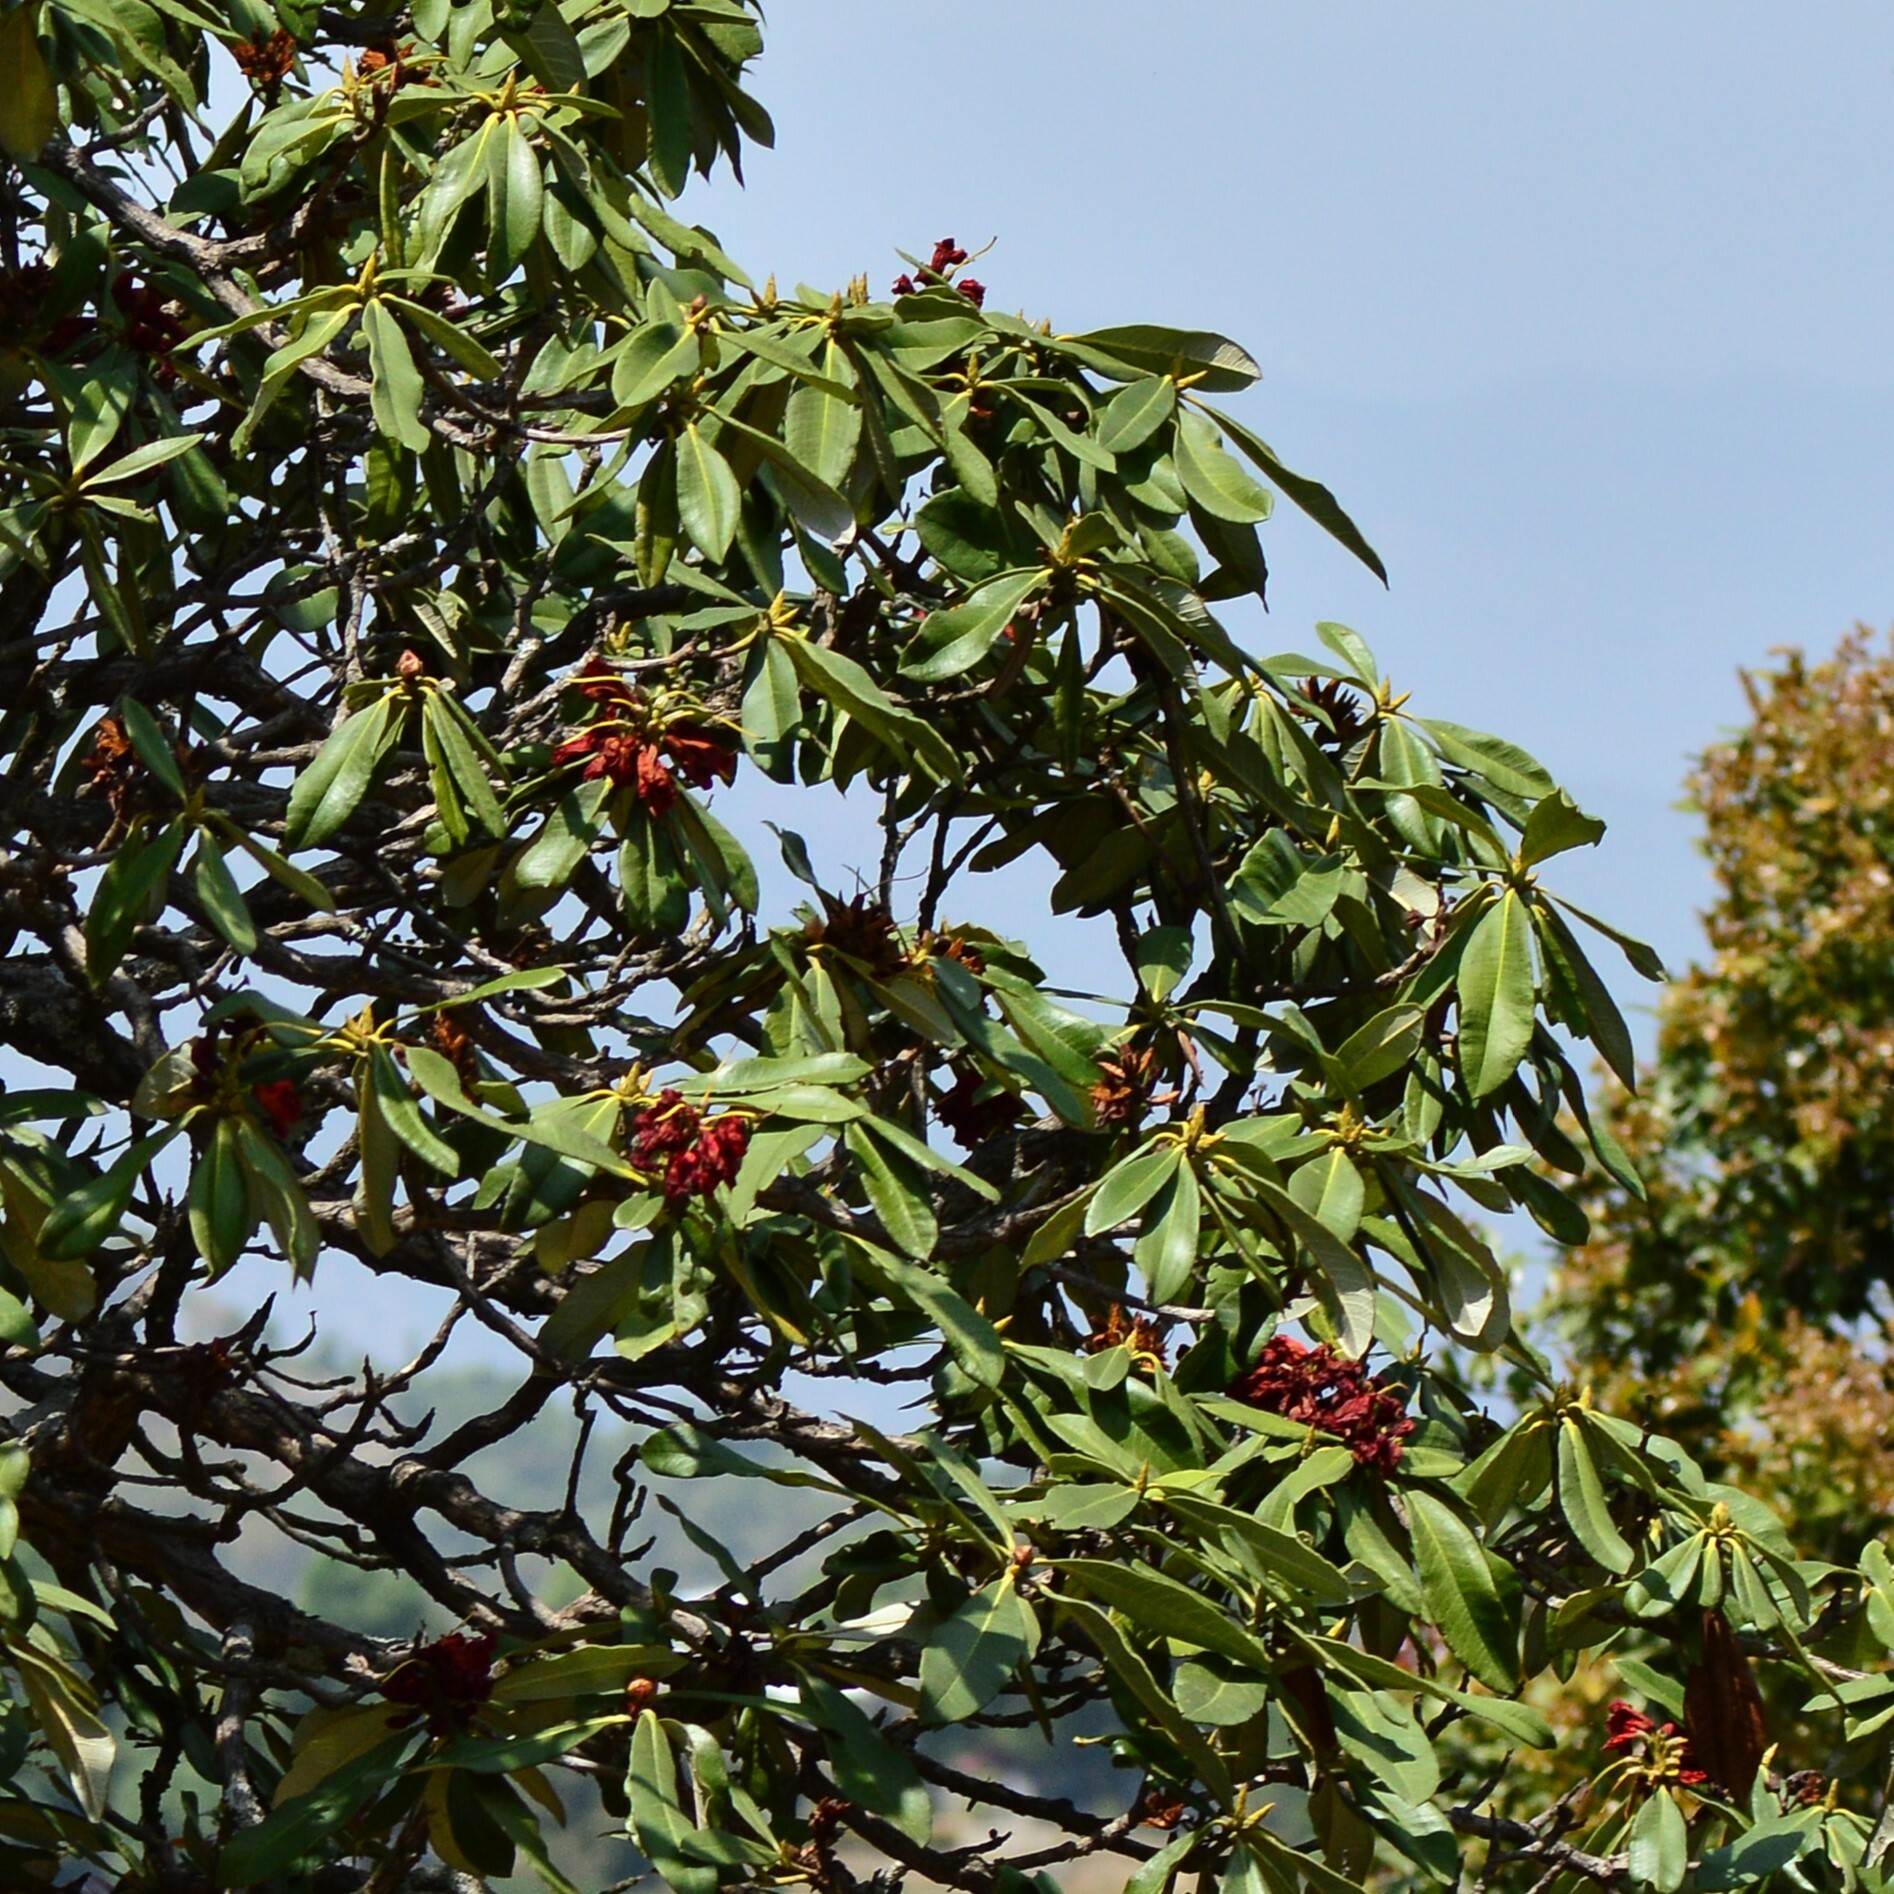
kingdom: Plantae
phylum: Tracheophyta
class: Magnoliopsida
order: Ericales
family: Ericaceae
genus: Rhododendron
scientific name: Rhododendron arboreum
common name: Tree rhododendron
